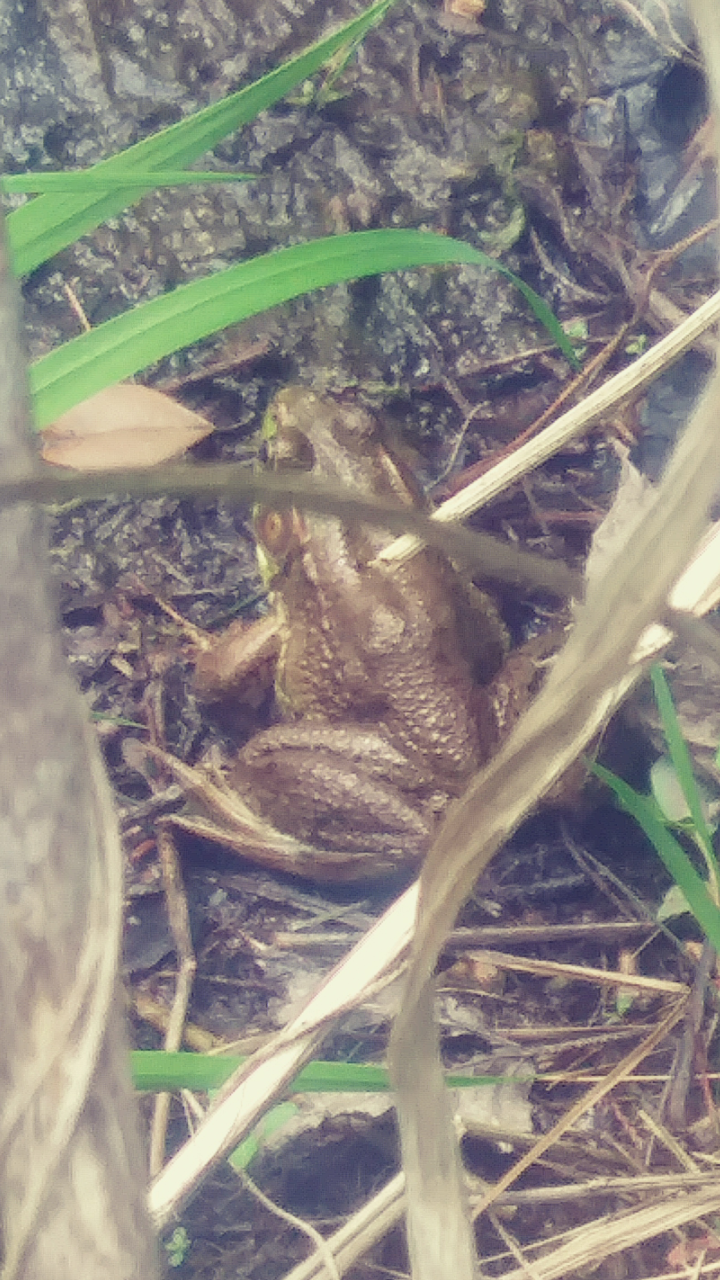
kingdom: Animalia
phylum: Chordata
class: Amphibia
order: Anura
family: Ranidae
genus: Lithobates
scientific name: Lithobates clamitans
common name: Green frog
